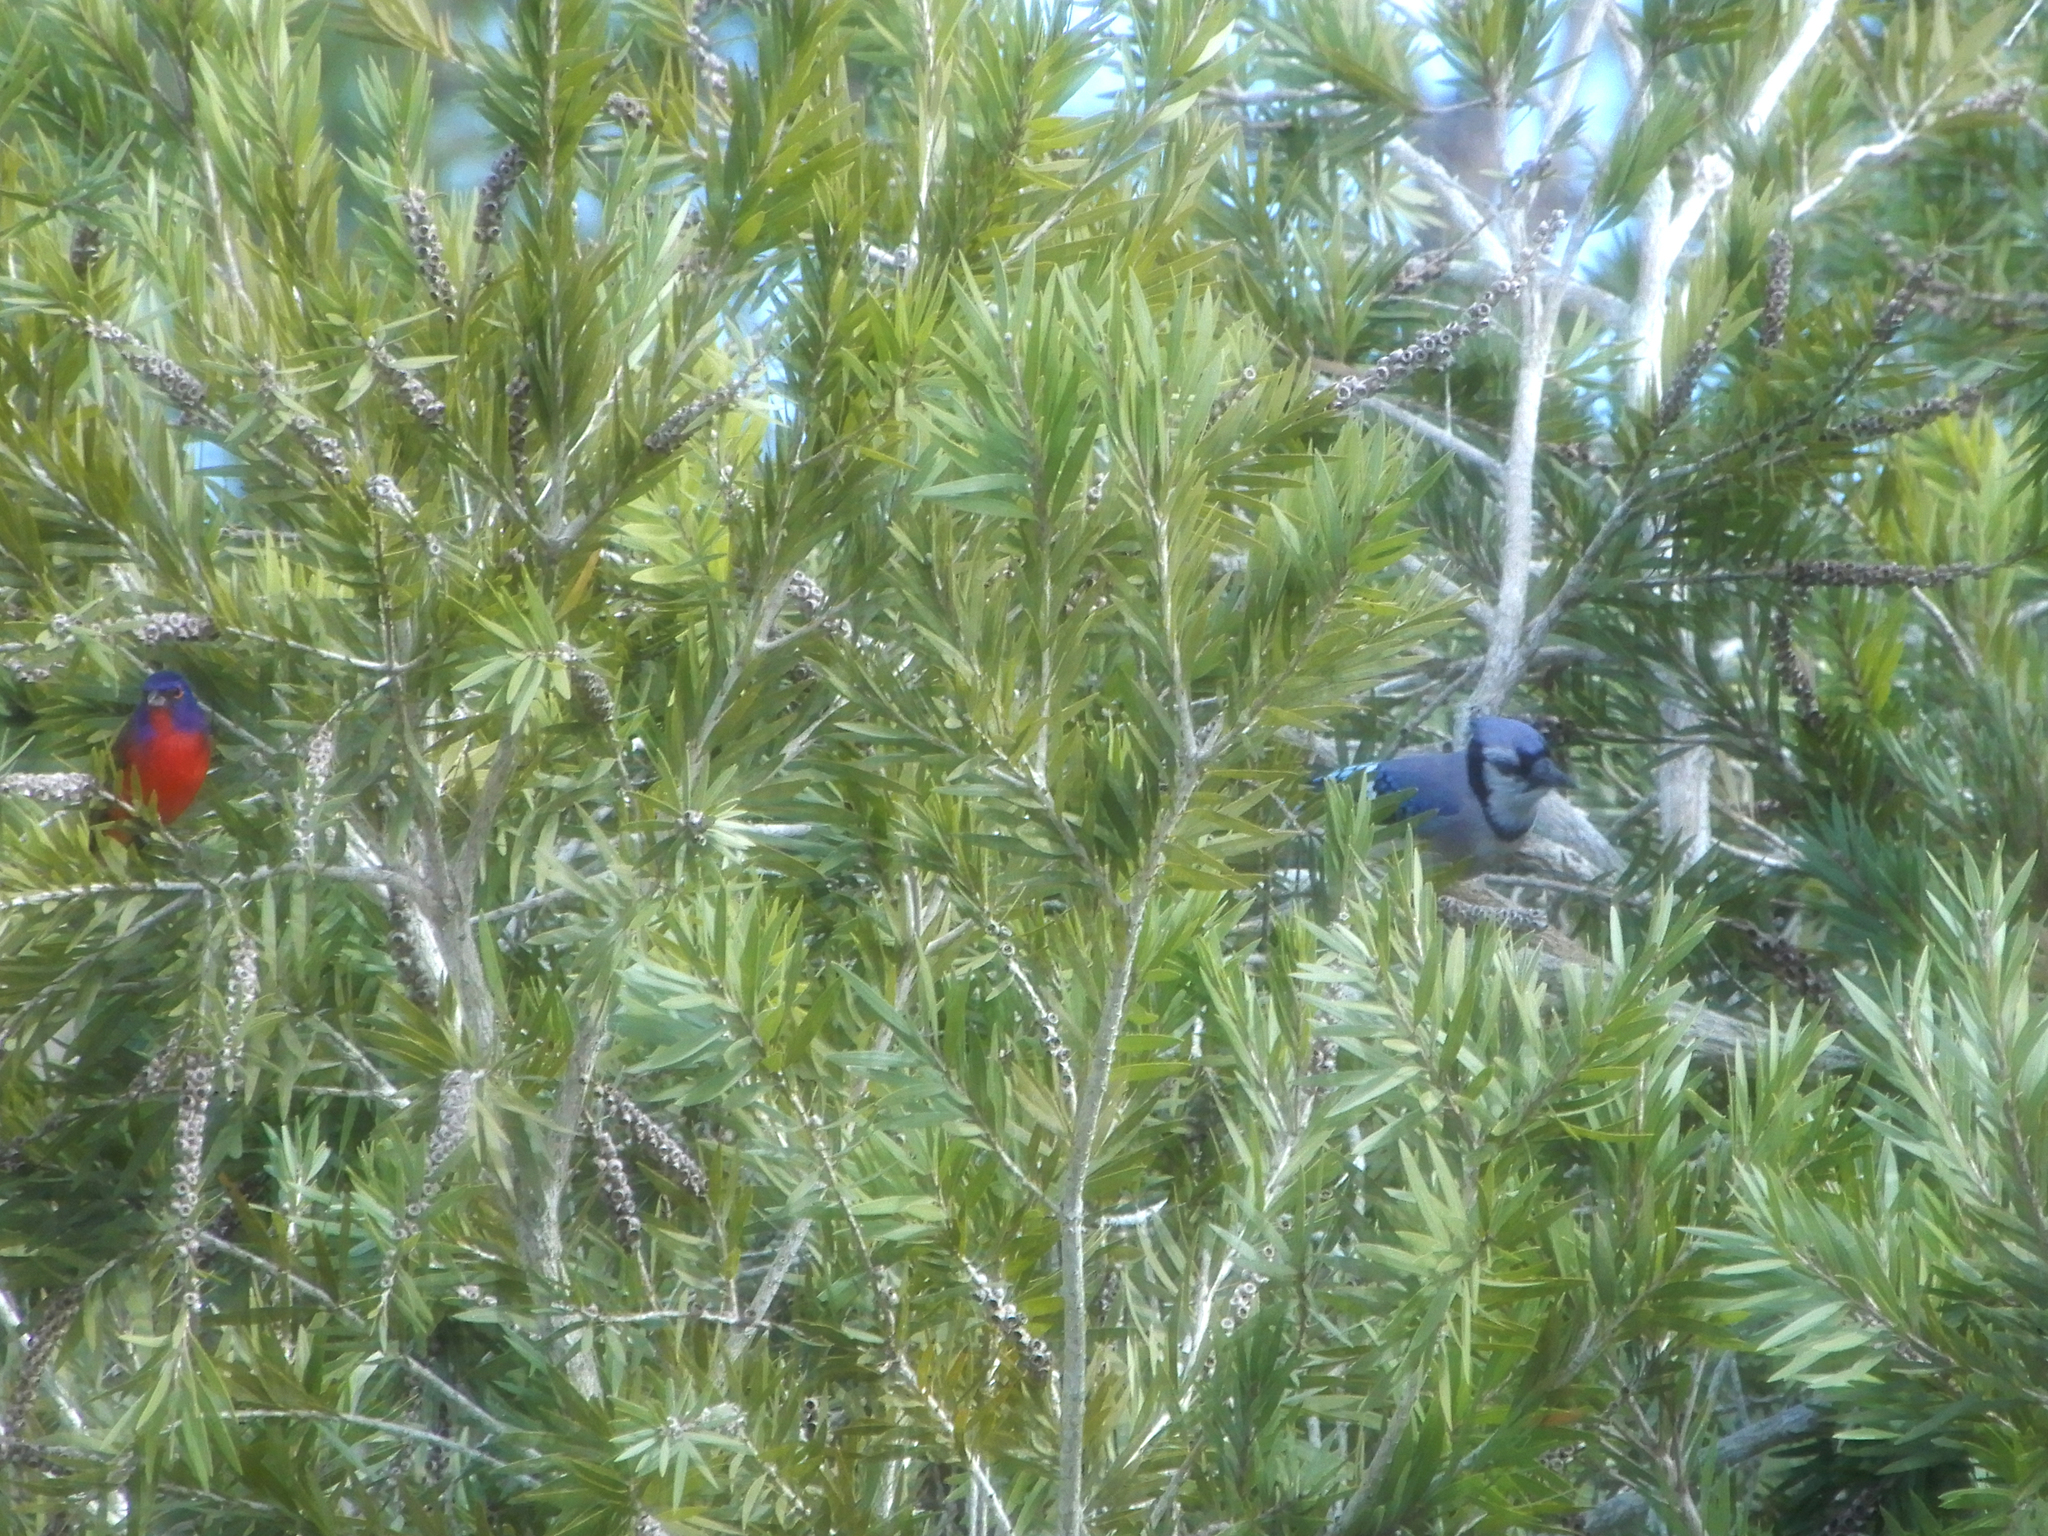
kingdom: Animalia
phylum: Chordata
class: Aves
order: Passeriformes
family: Corvidae
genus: Cyanocitta
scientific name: Cyanocitta cristata
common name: Blue jay
